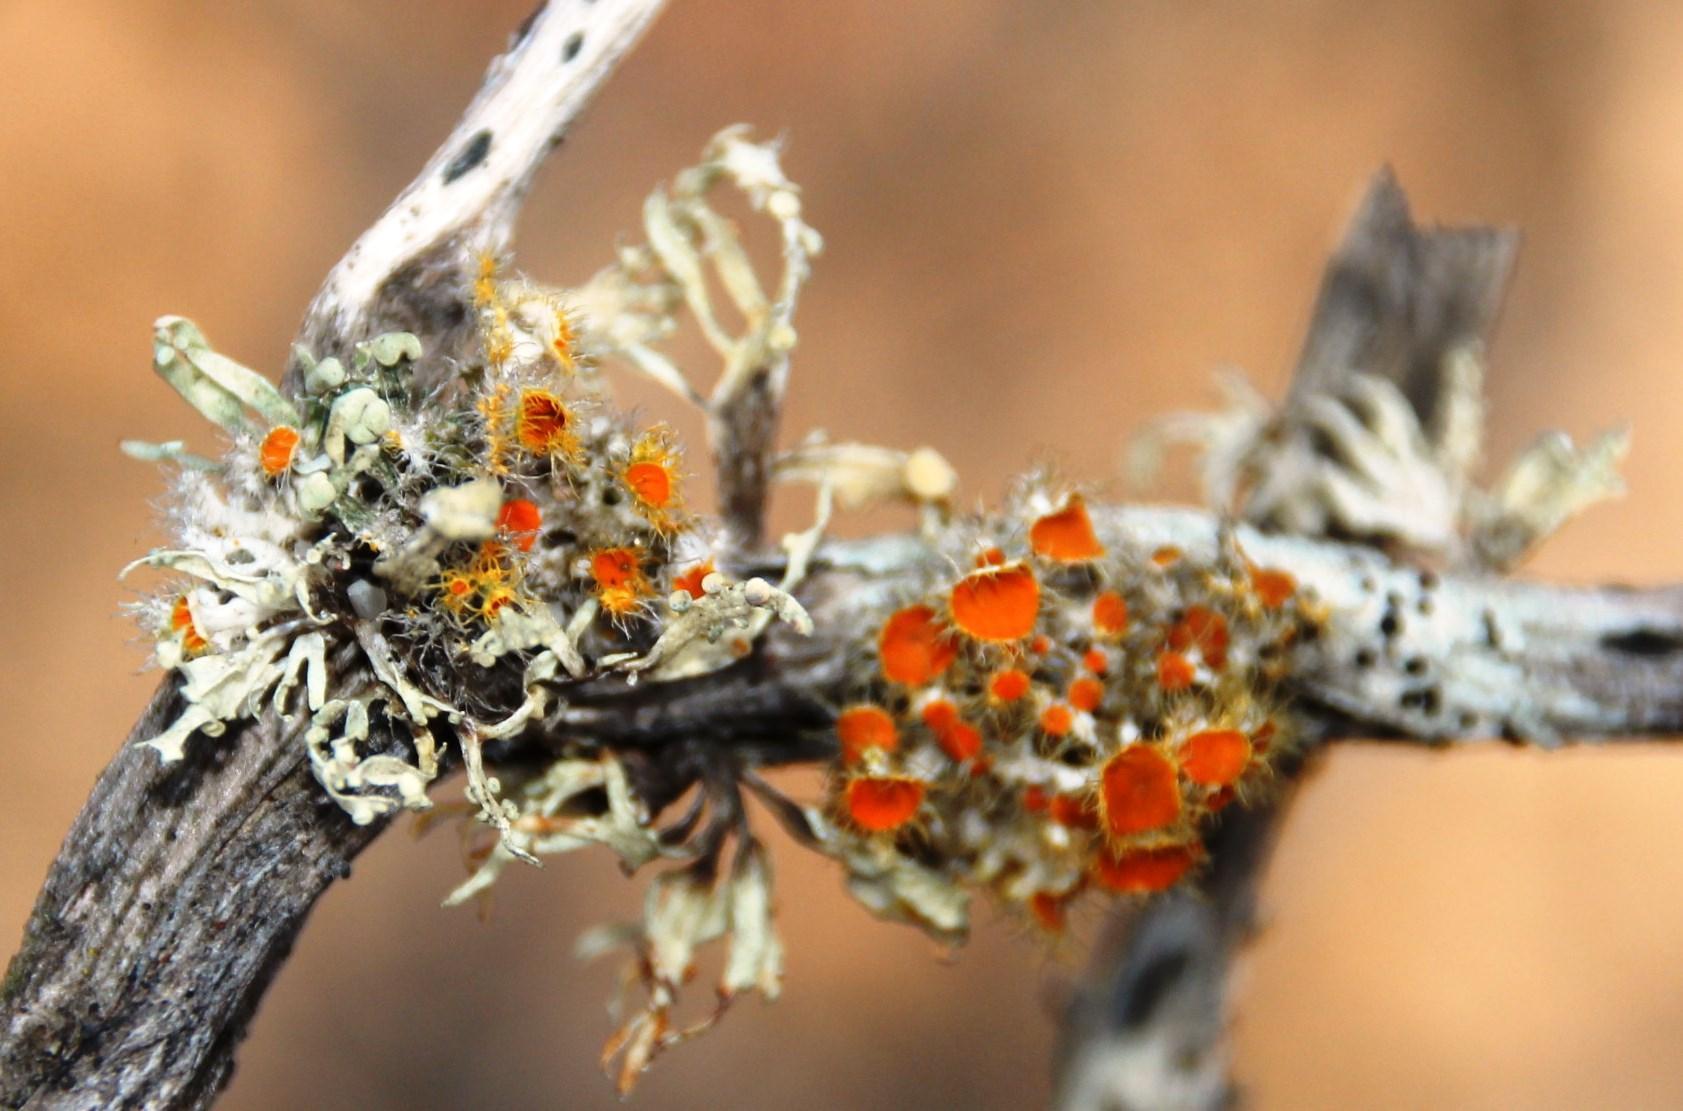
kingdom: Fungi
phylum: Ascomycota
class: Lecanoromycetes
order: Teloschistales
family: Teloschistaceae
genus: Niorma
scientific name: Niorma chrysophthalma
